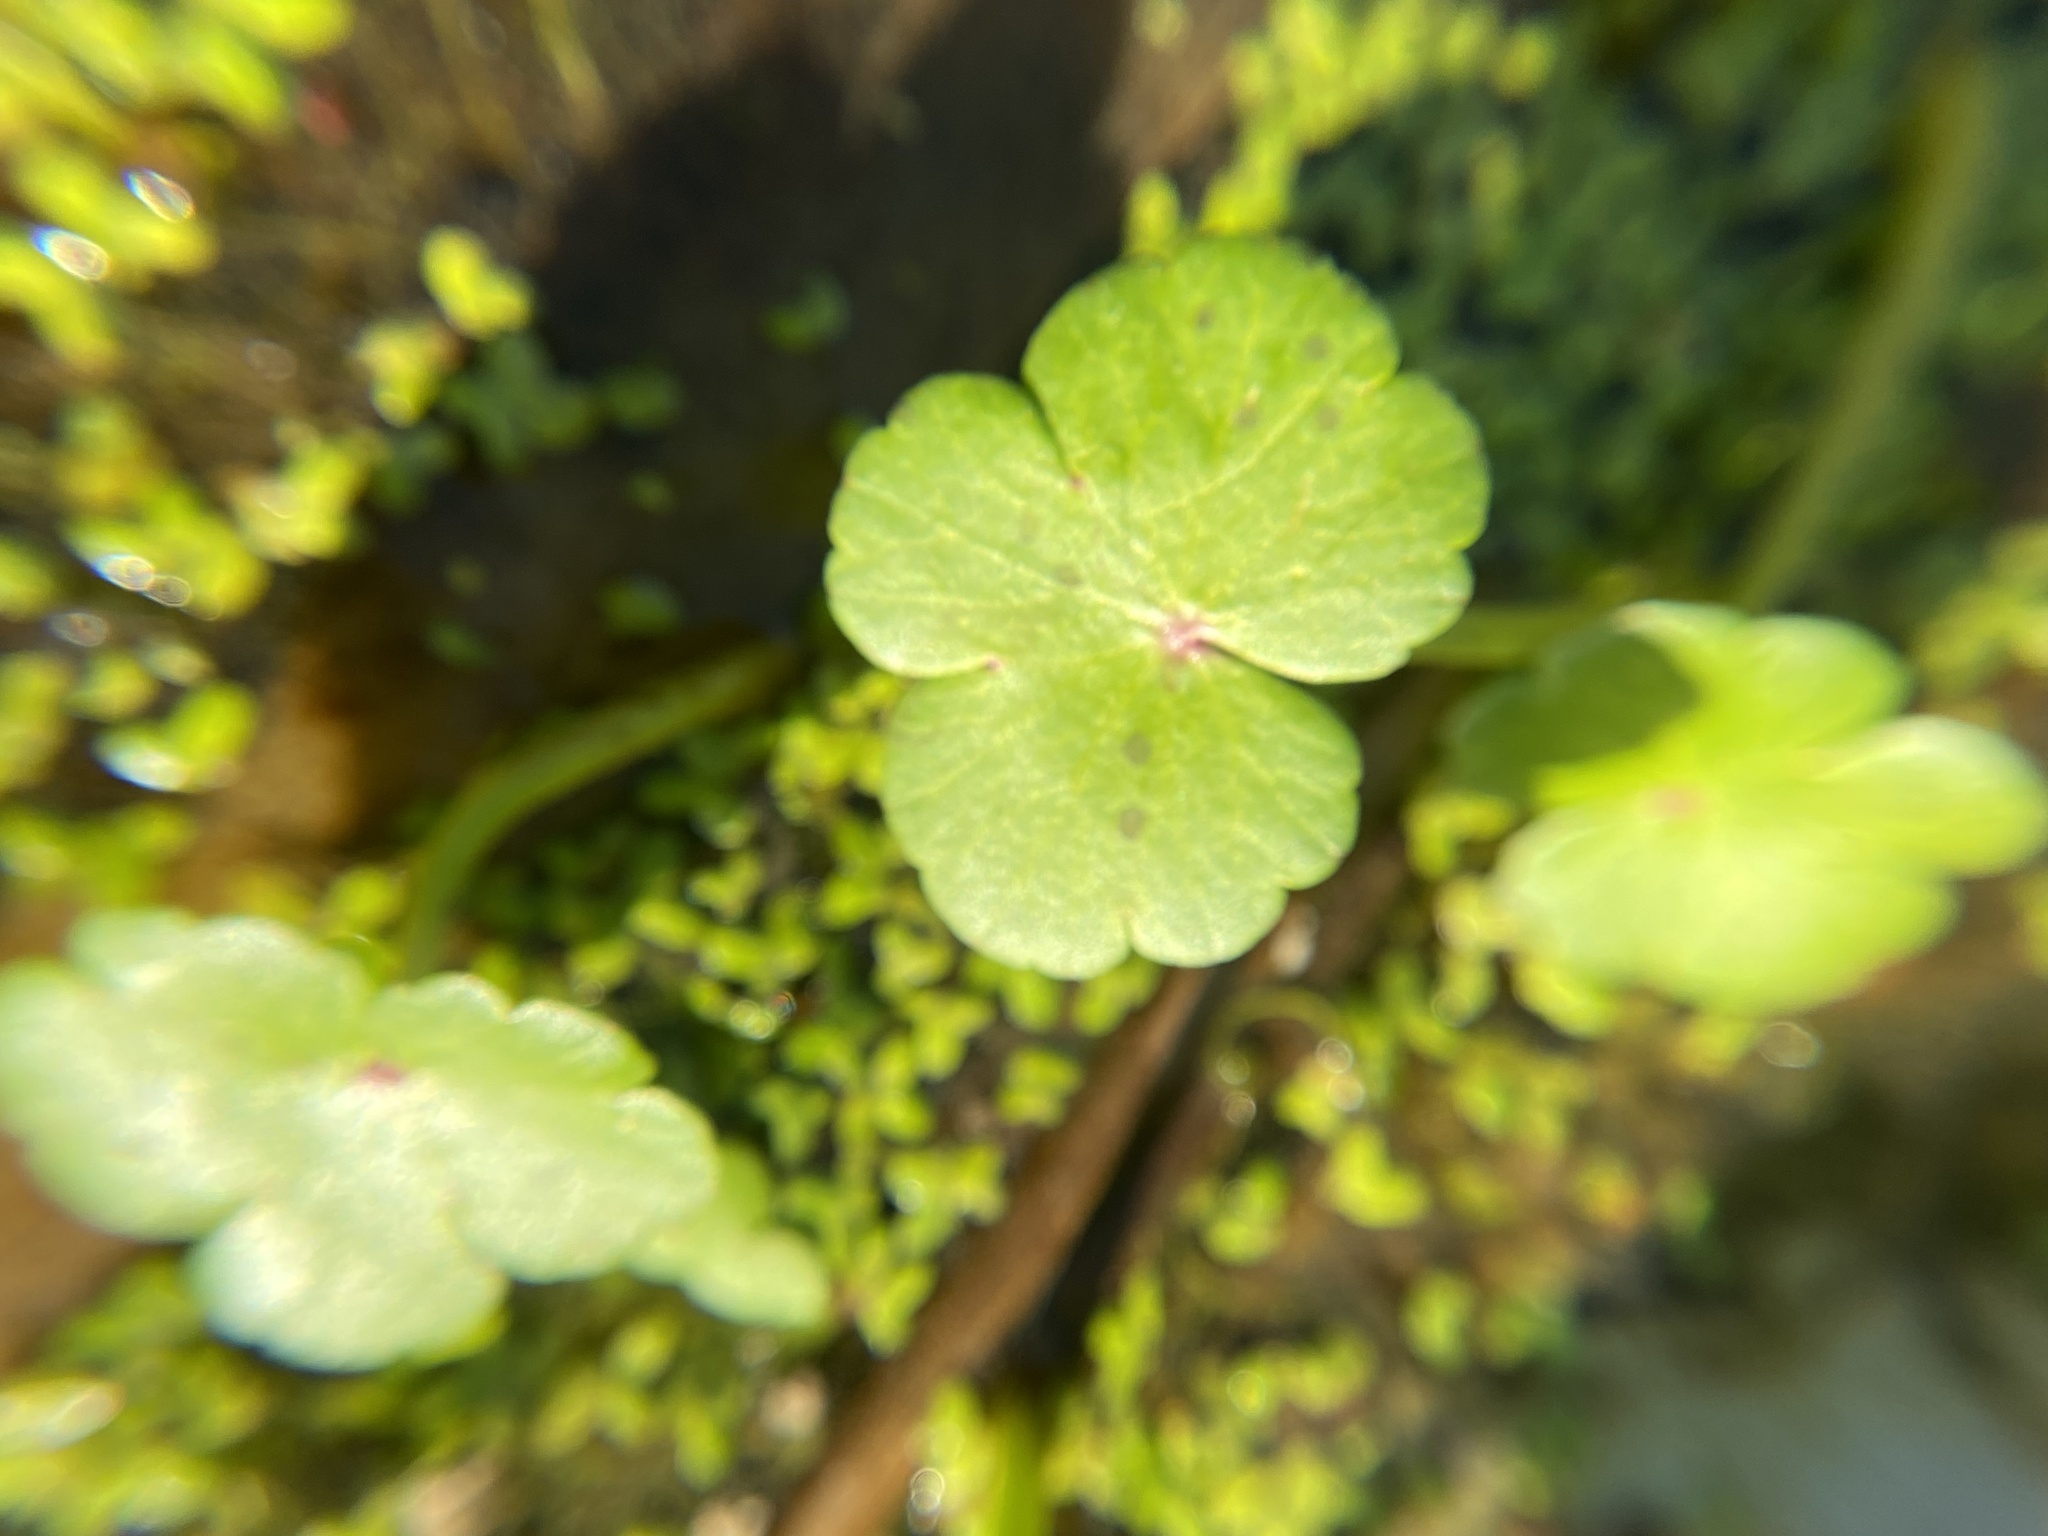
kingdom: Plantae
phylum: Tracheophyta
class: Magnoliopsida
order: Apiales
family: Araliaceae
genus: Hydrocotyle
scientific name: Hydrocotyle ranunculoides
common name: Floating pennywort
